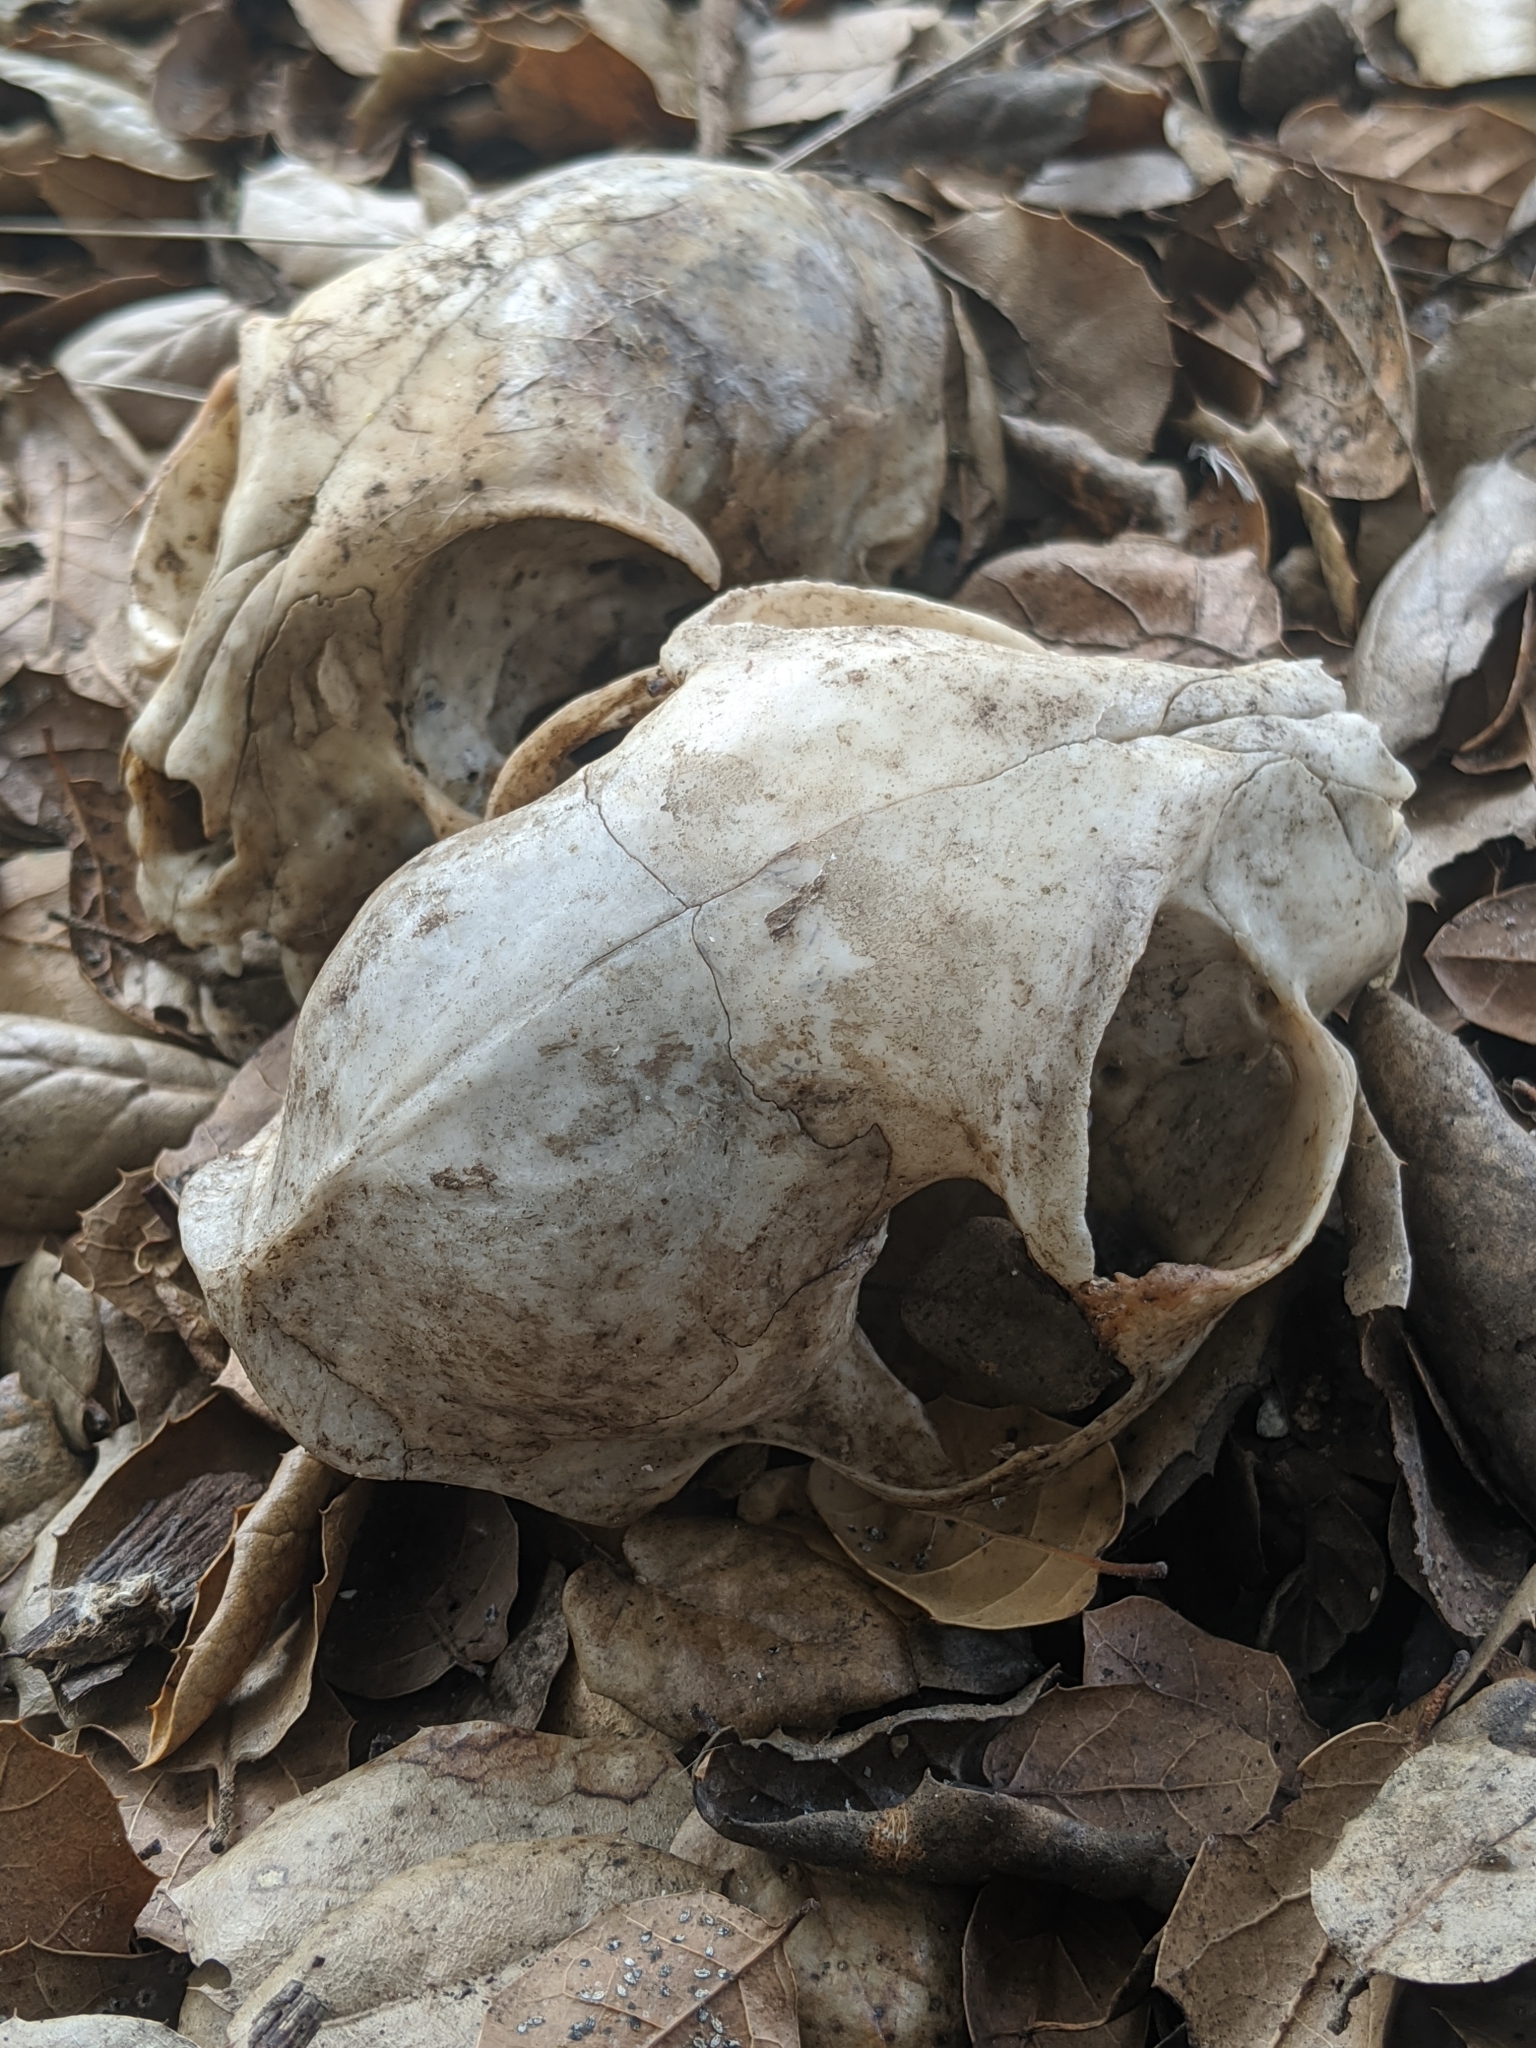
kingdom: Animalia
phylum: Chordata
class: Mammalia
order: Carnivora
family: Felidae
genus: Felis
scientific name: Felis catus
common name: Domestic cat
